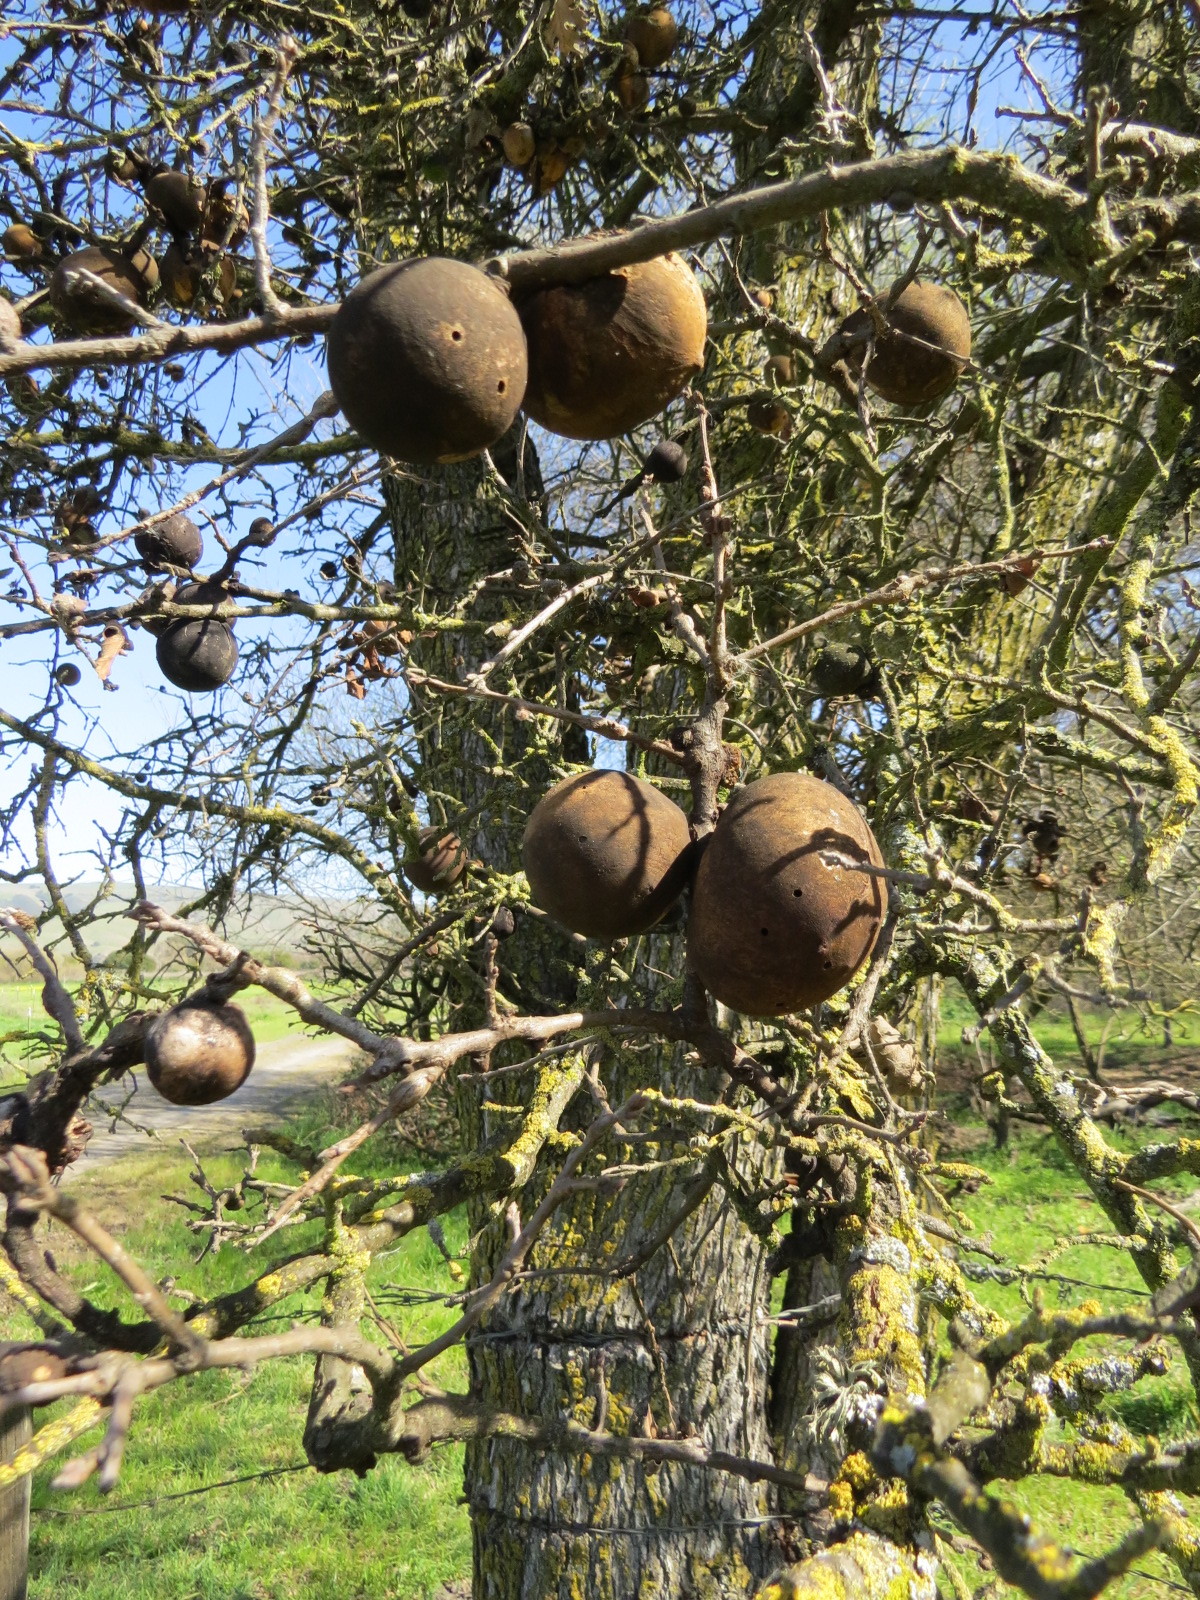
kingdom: Animalia
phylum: Arthropoda
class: Insecta
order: Hymenoptera
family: Cynipidae
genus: Andricus
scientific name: Andricus quercuscalifornicus
